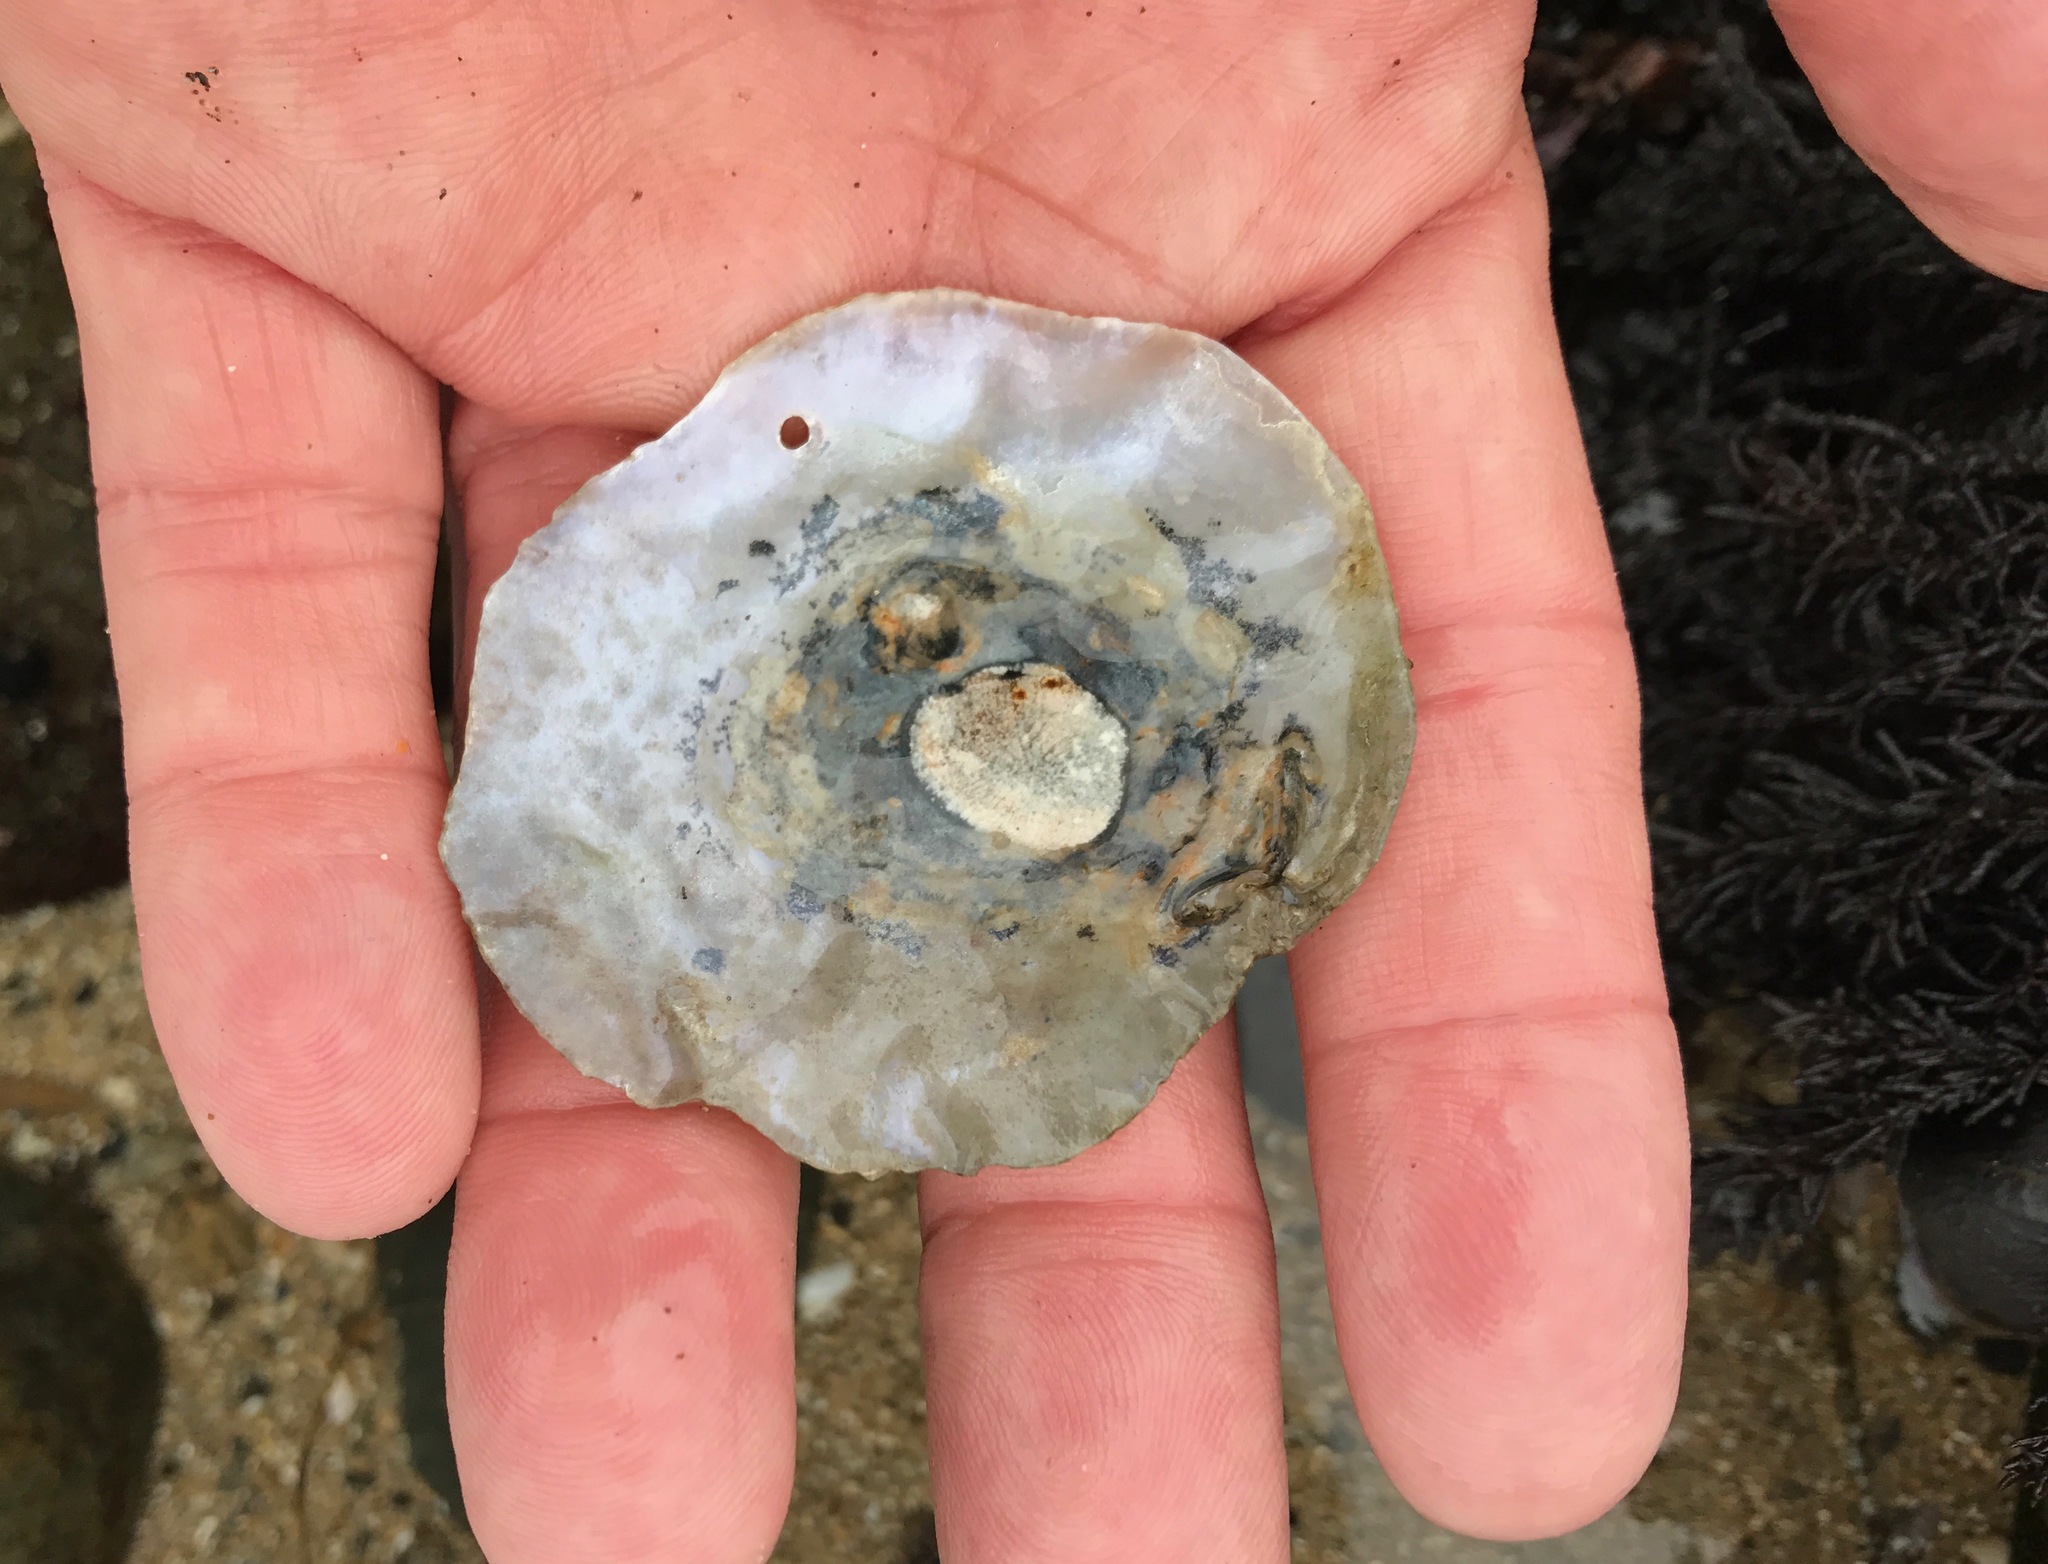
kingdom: Animalia
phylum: Mollusca
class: Bivalvia
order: Pectinida
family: Anomiidae
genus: Pododesmus
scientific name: Pododesmus macrochisma
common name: Alaska jingle
